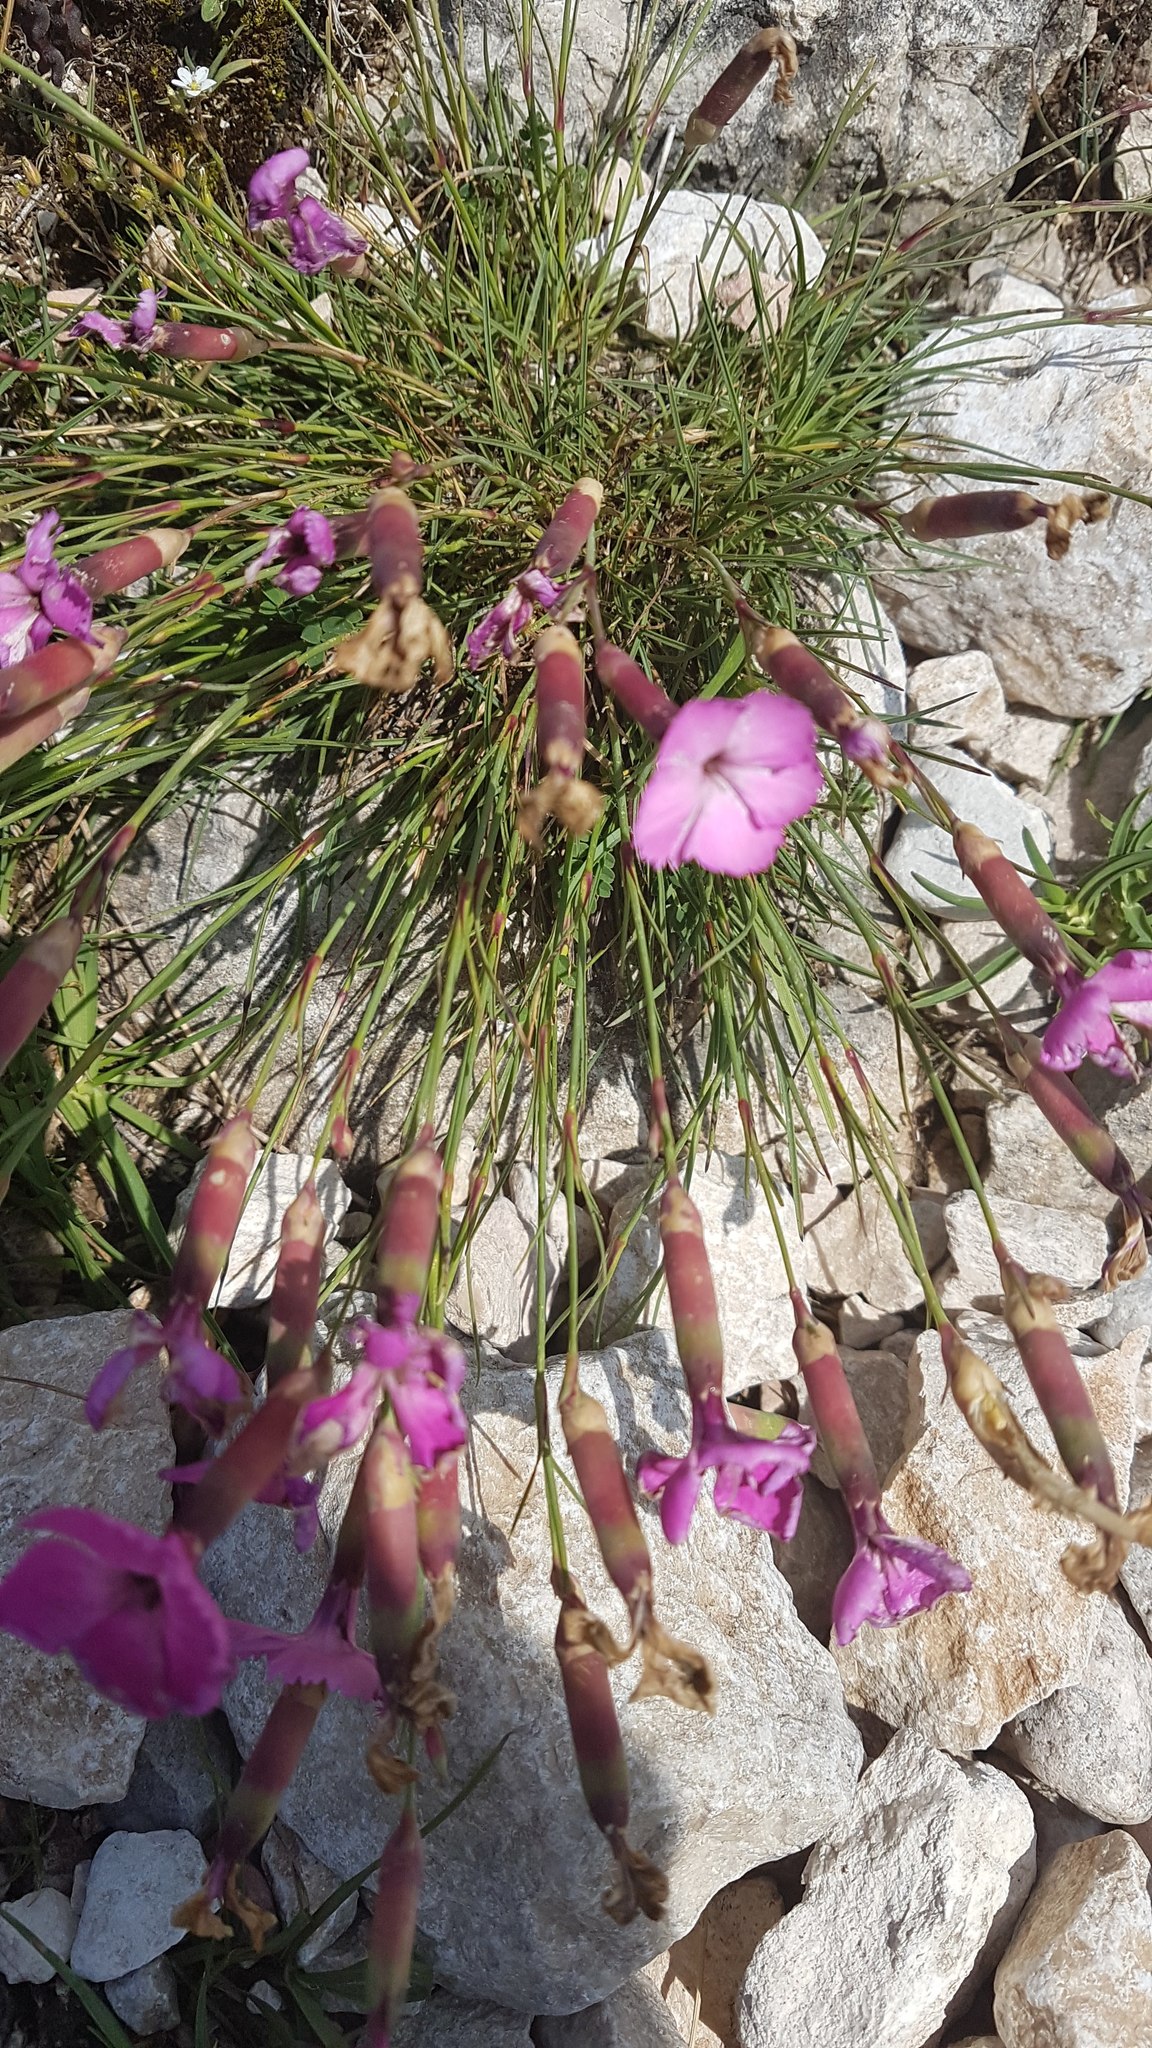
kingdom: Plantae
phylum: Tracheophyta
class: Magnoliopsida
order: Caryophyllales
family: Caryophyllaceae
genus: Dianthus
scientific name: Dianthus sylvestris
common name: Wood pink
